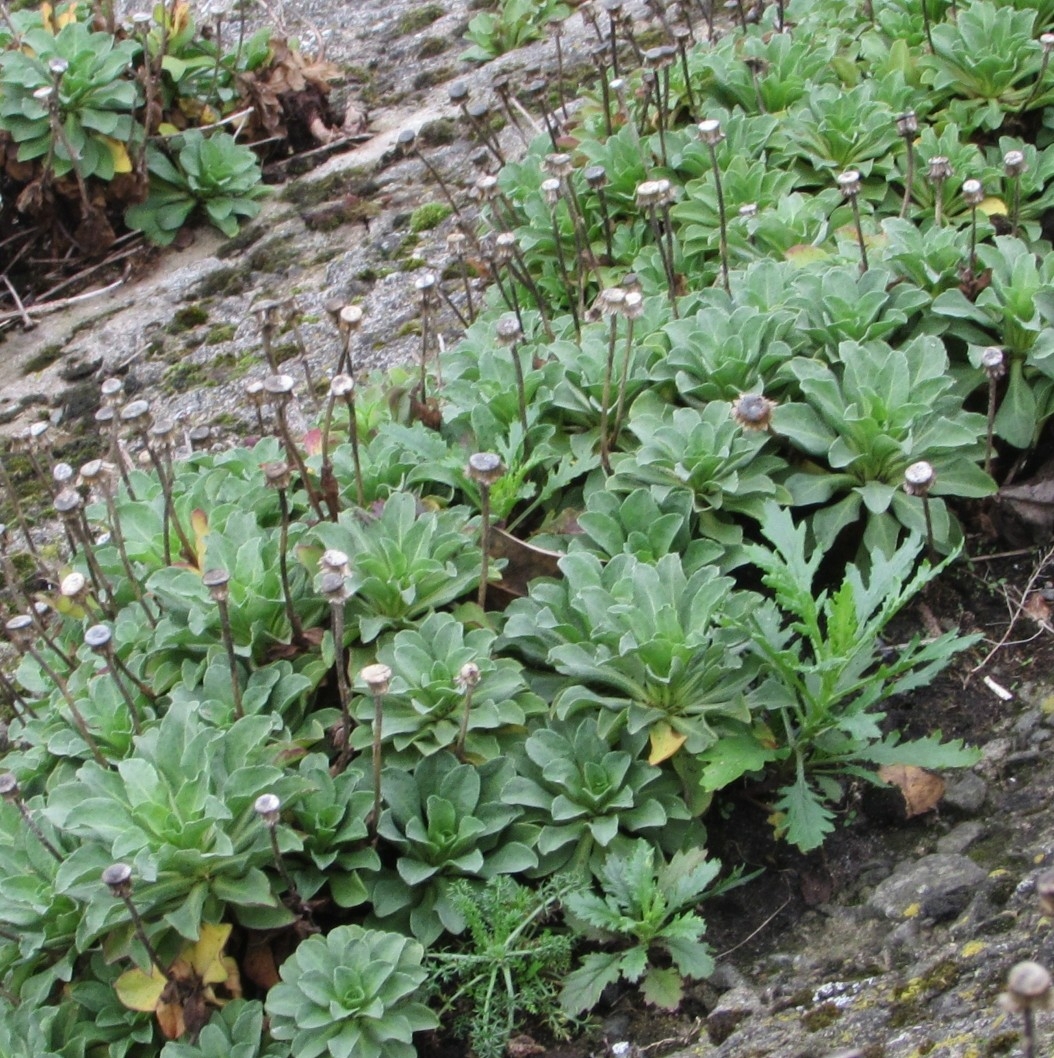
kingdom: Plantae
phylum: Tracheophyta
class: Magnoliopsida
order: Asterales
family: Asteraceae
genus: Erigeron
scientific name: Erigeron glaucus
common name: Seaside daisy
